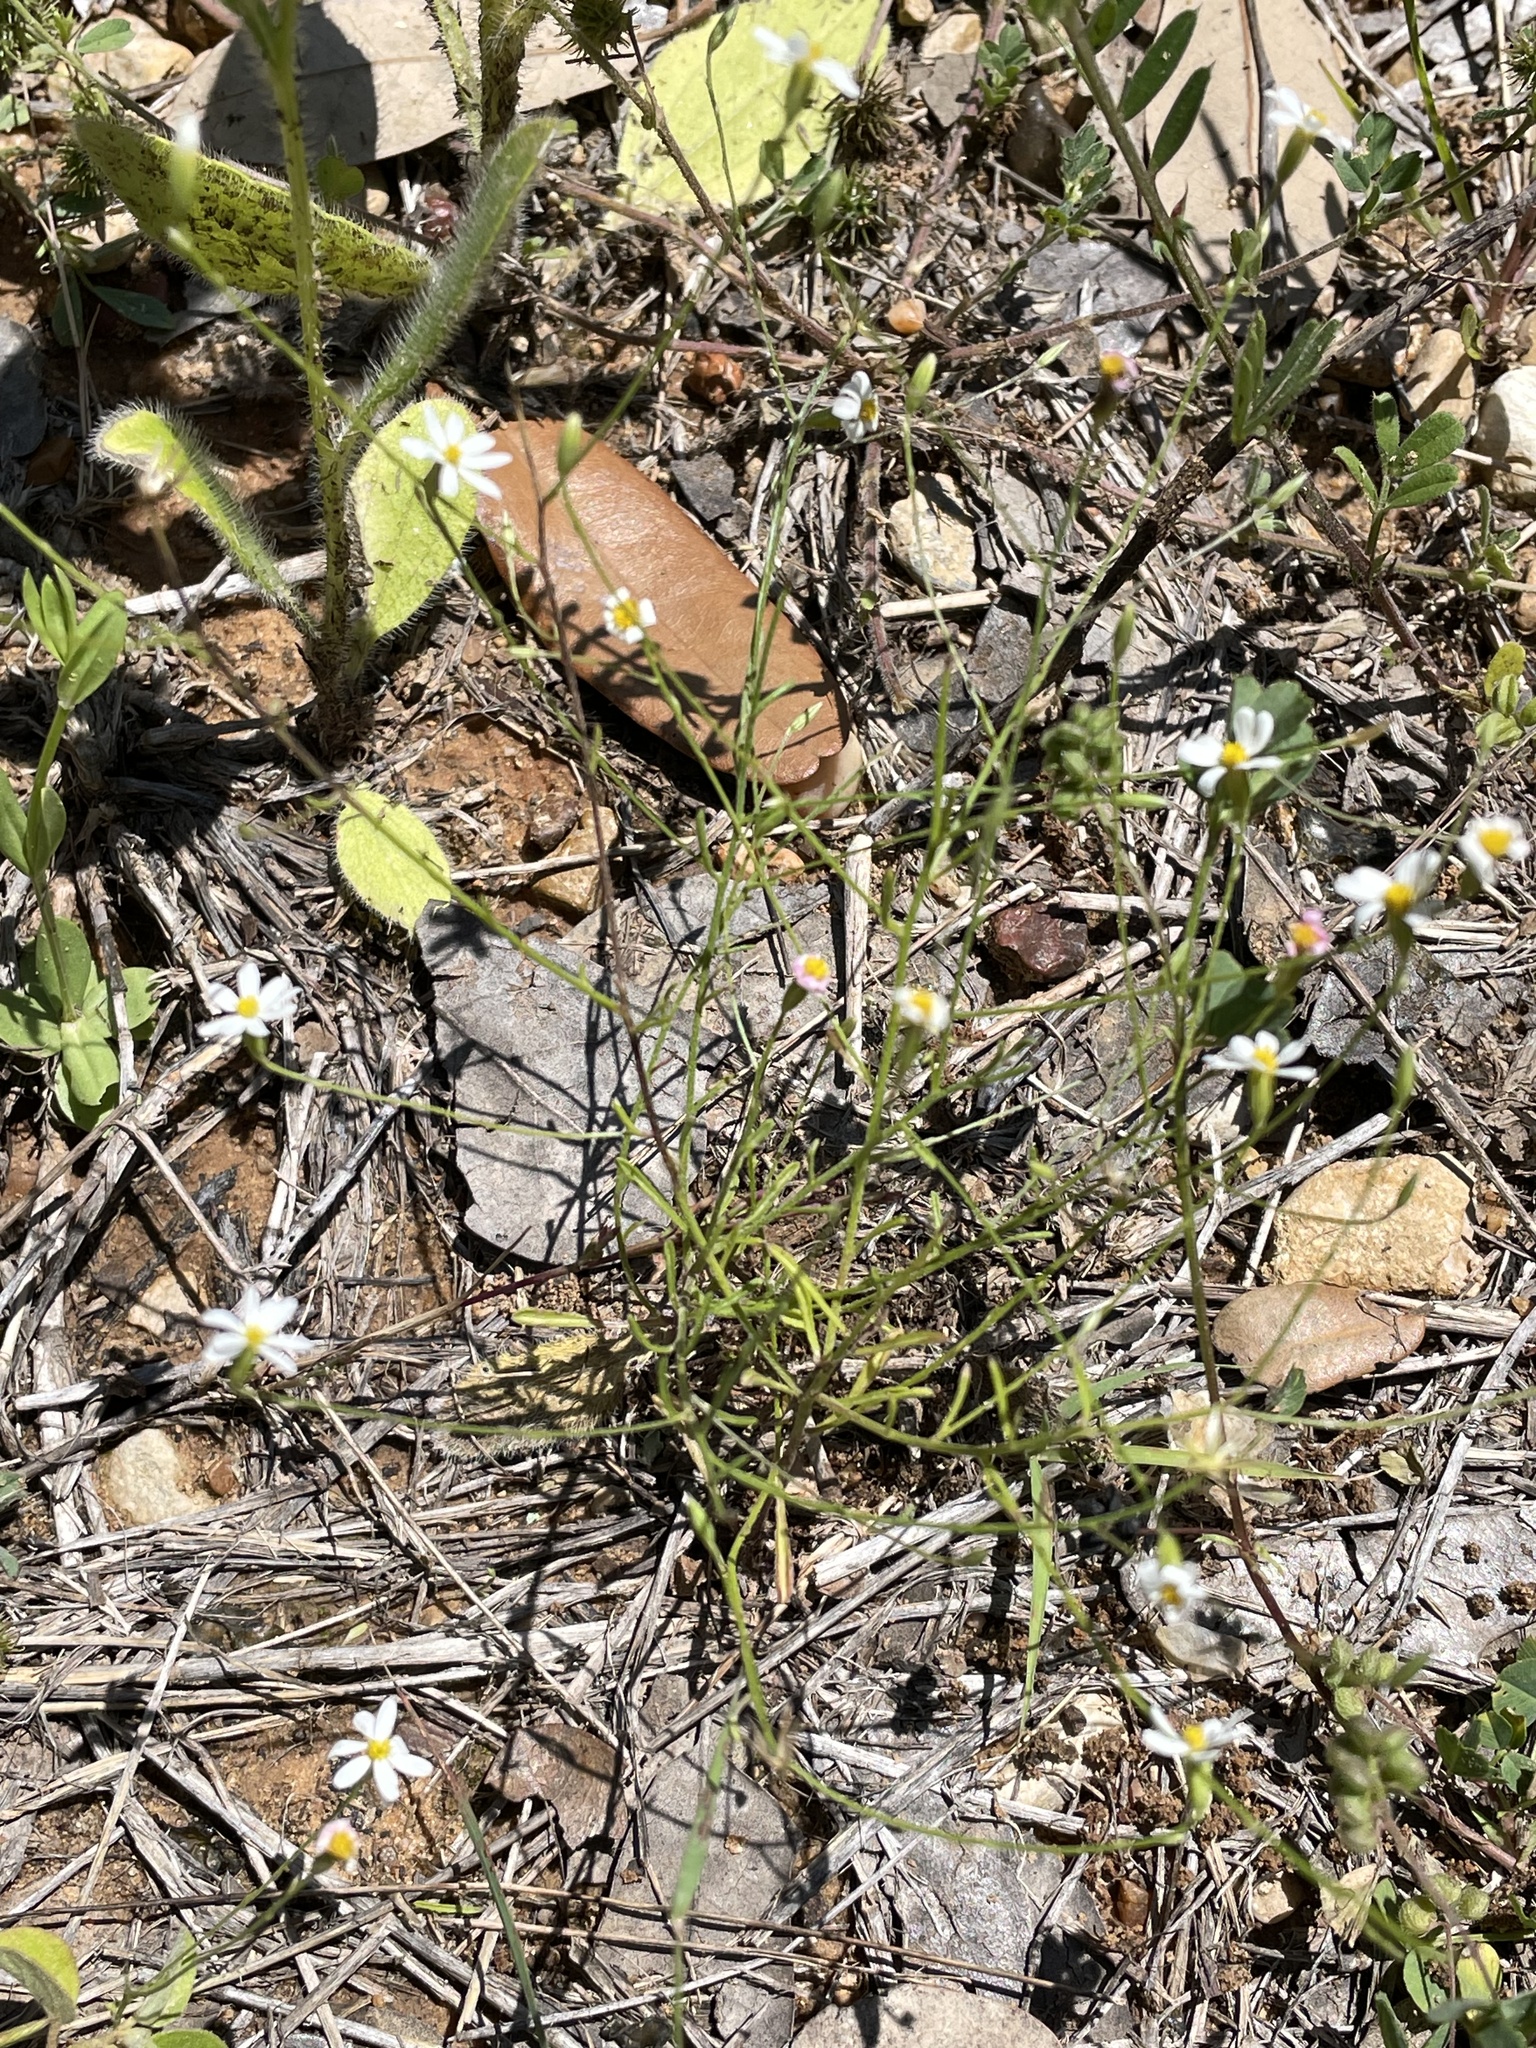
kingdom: Plantae
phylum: Tracheophyta
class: Magnoliopsida
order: Asterales
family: Asteraceae
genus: Chaetopappa
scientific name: Chaetopappa asteroides
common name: Tiny lazy daisy
